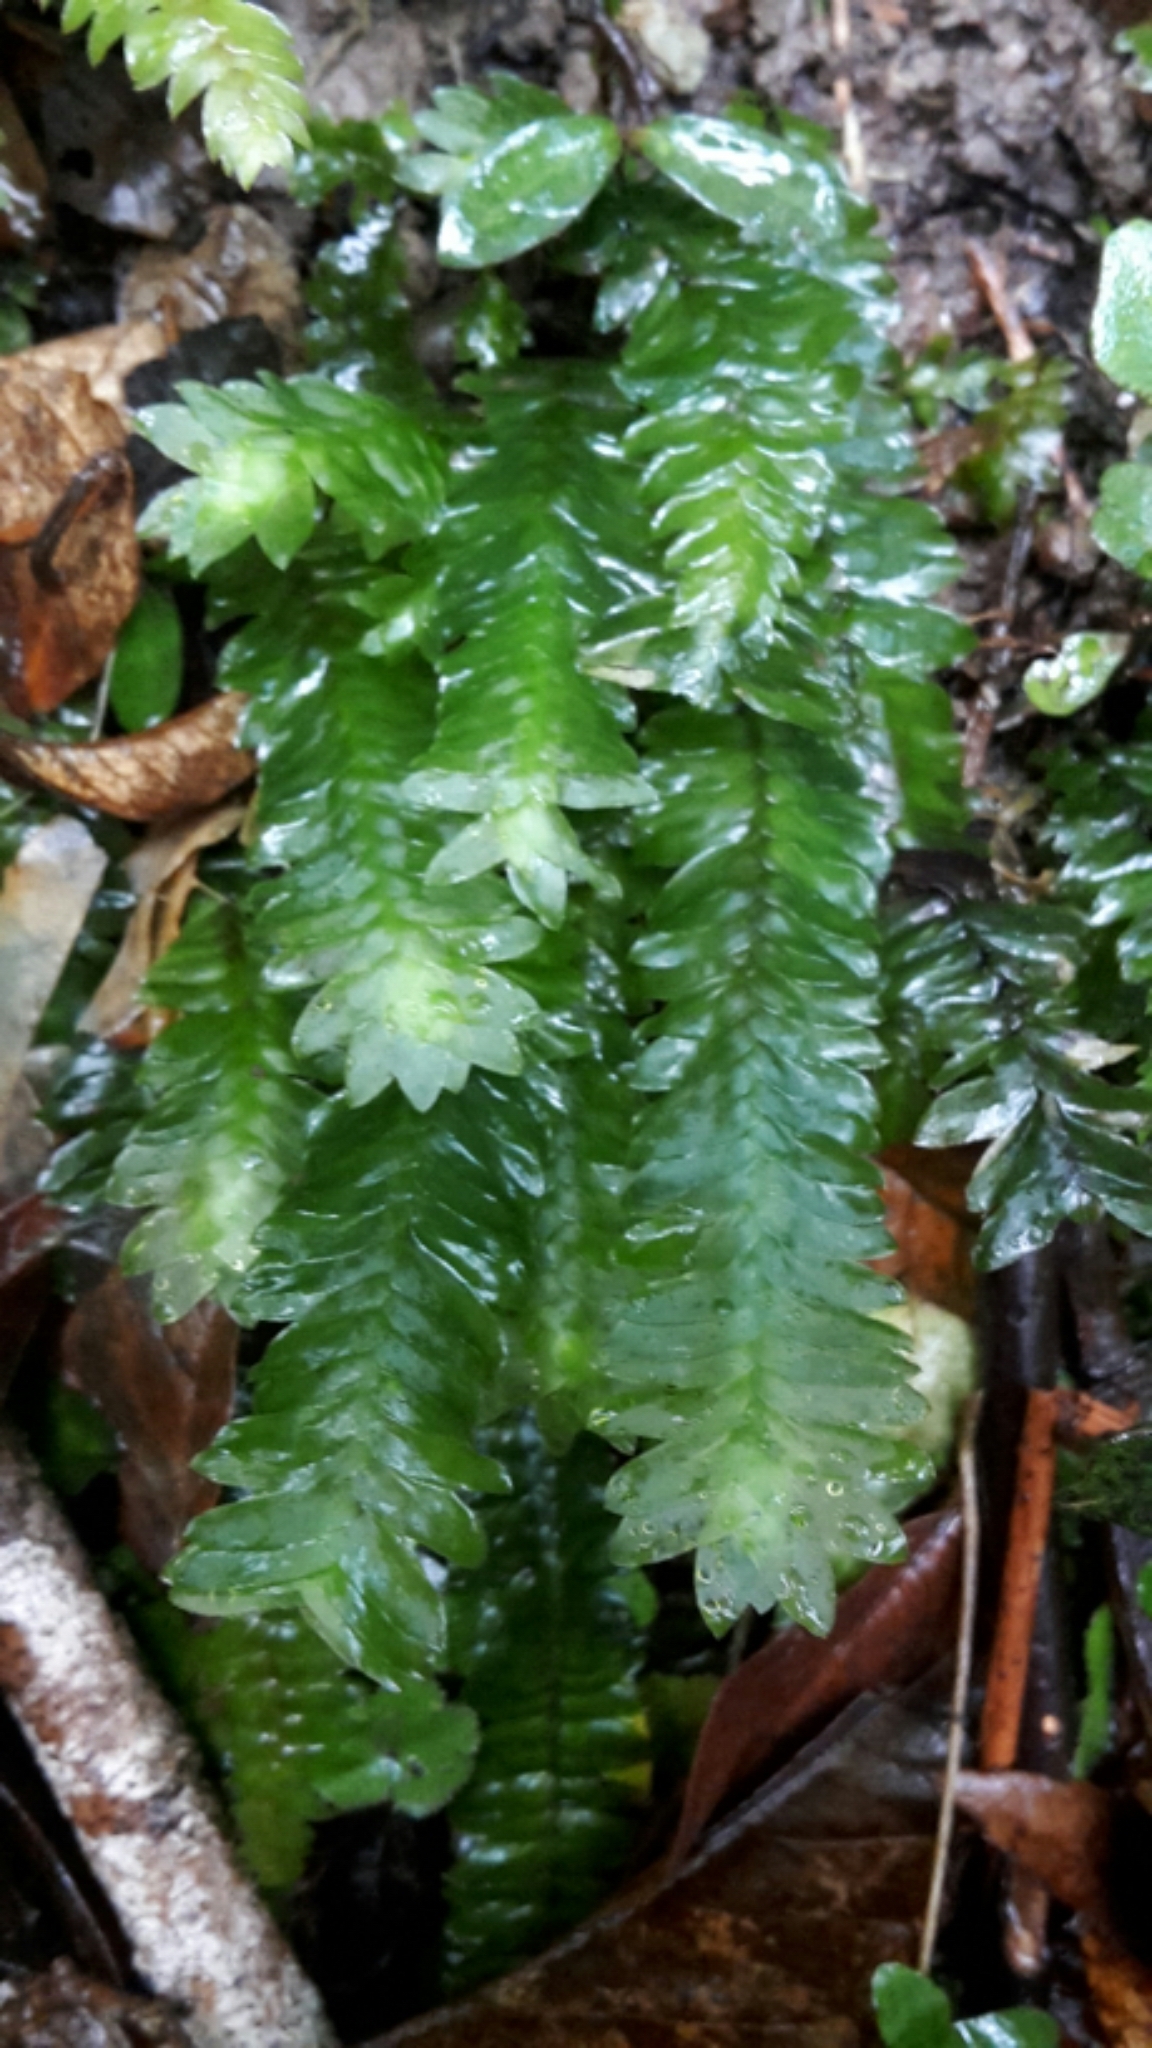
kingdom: Plantae
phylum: Bryophyta
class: Bryopsida
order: Hypopterygiales
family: Hypopterygiaceae
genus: Cyathophorum
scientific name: Cyathophorum bulbosum
